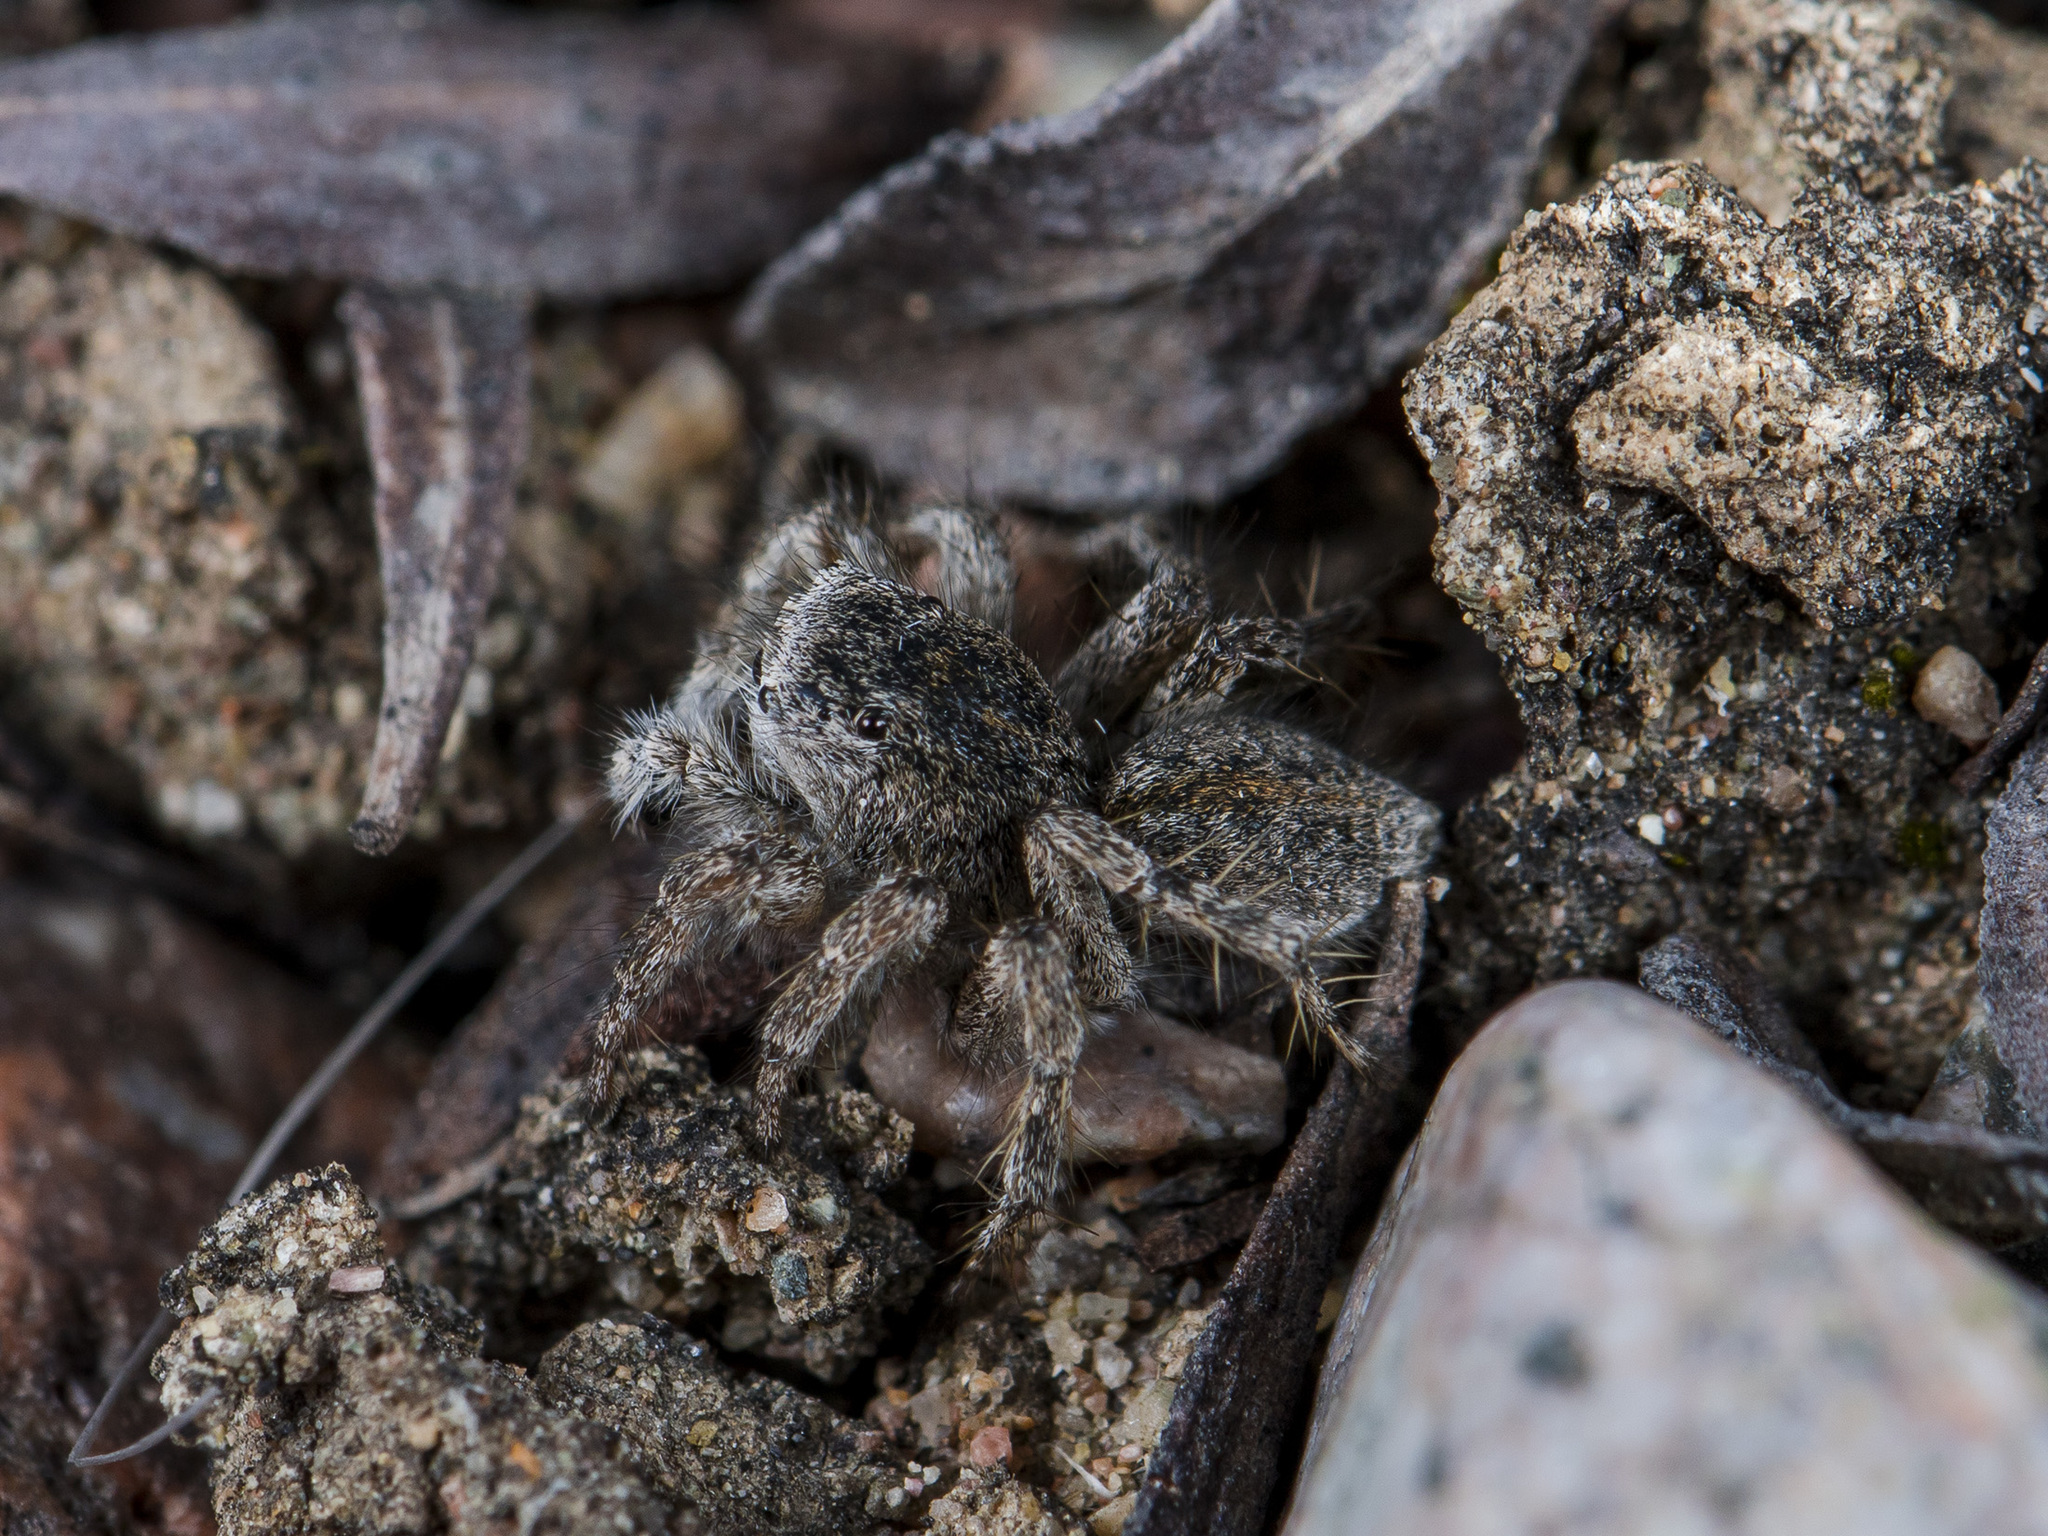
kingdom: Animalia
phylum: Arthropoda
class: Arachnida
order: Araneae
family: Salticidae
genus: Aelurillus
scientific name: Aelurillus dubatolovi
